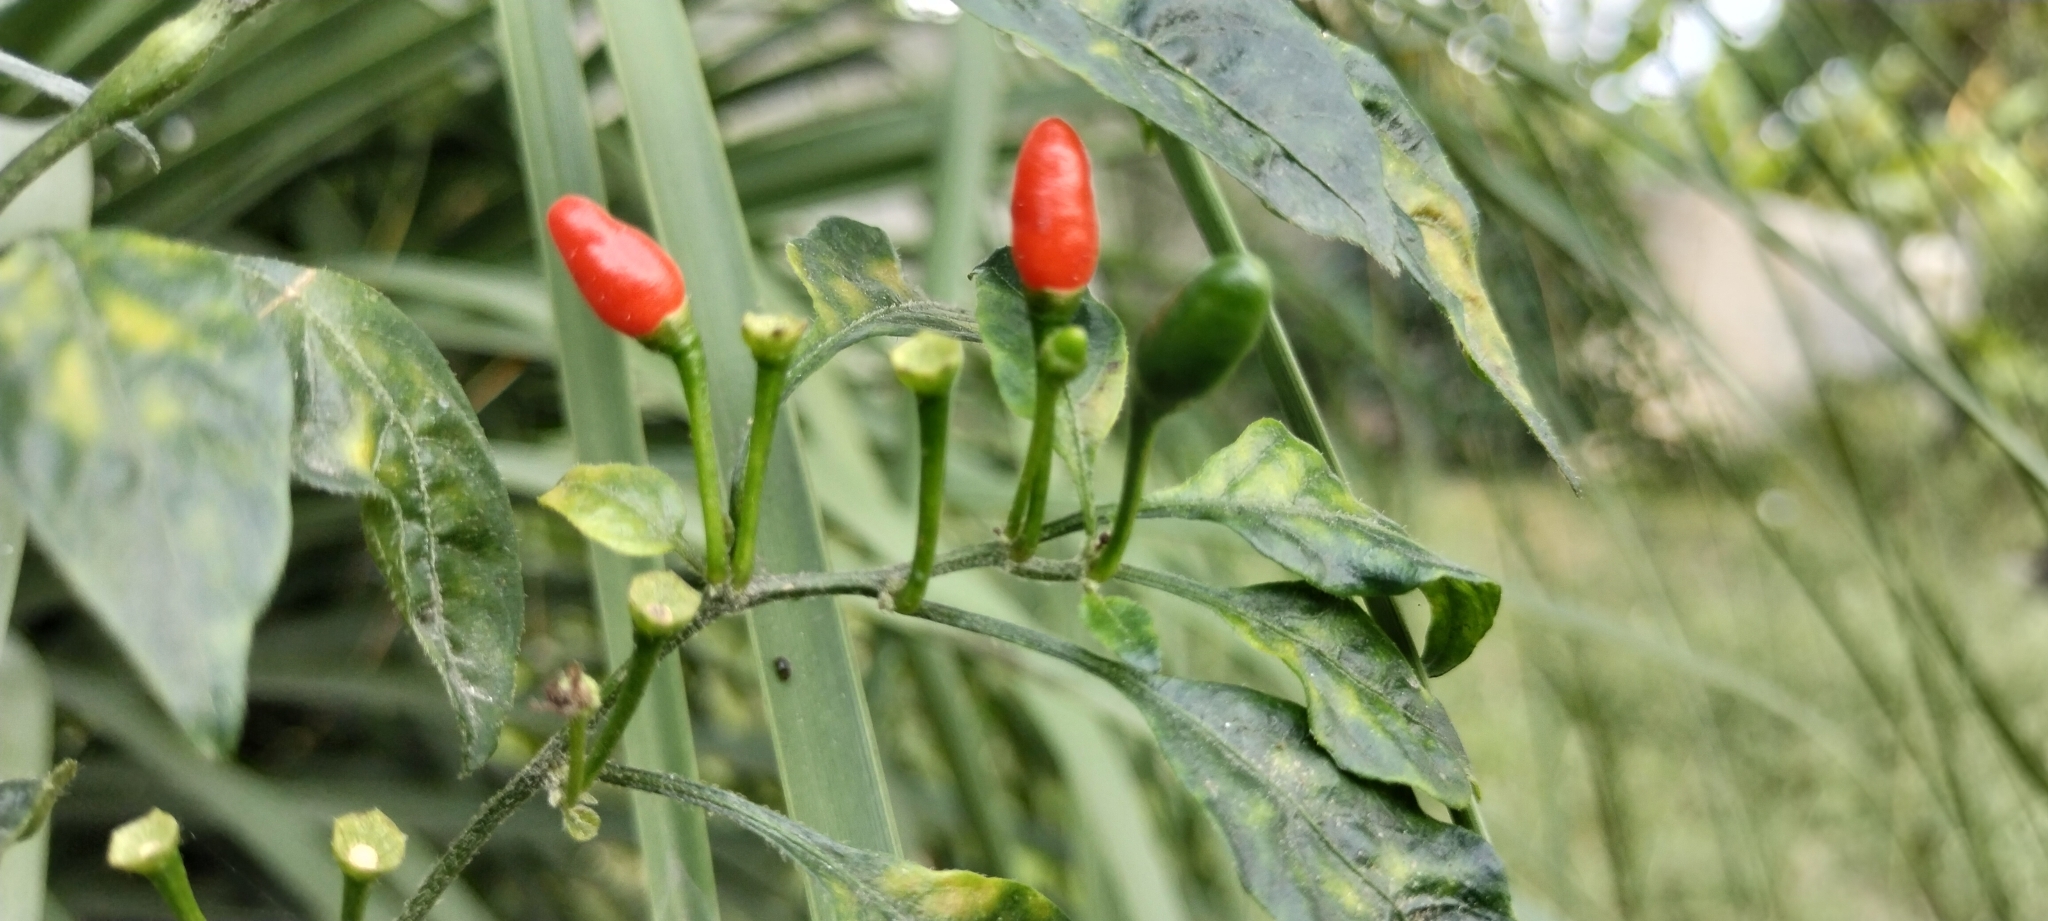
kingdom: Plantae
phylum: Tracheophyta
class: Magnoliopsida
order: Solanales
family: Solanaceae
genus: Capsicum
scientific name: Capsicum annuum
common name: Sweet pepper
